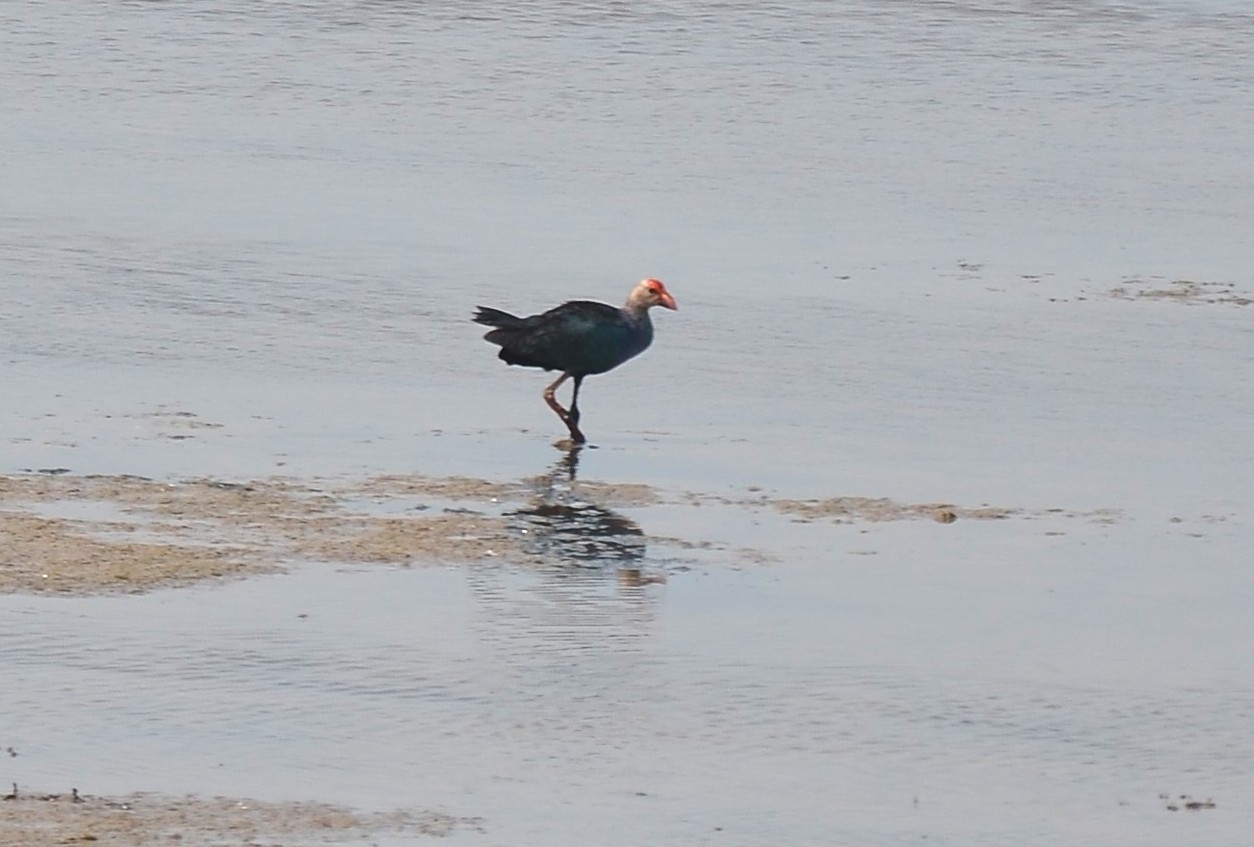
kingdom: Animalia
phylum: Chordata
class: Aves
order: Gruiformes
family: Rallidae
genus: Porphyrio
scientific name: Porphyrio porphyrio
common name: Purple swamphen
